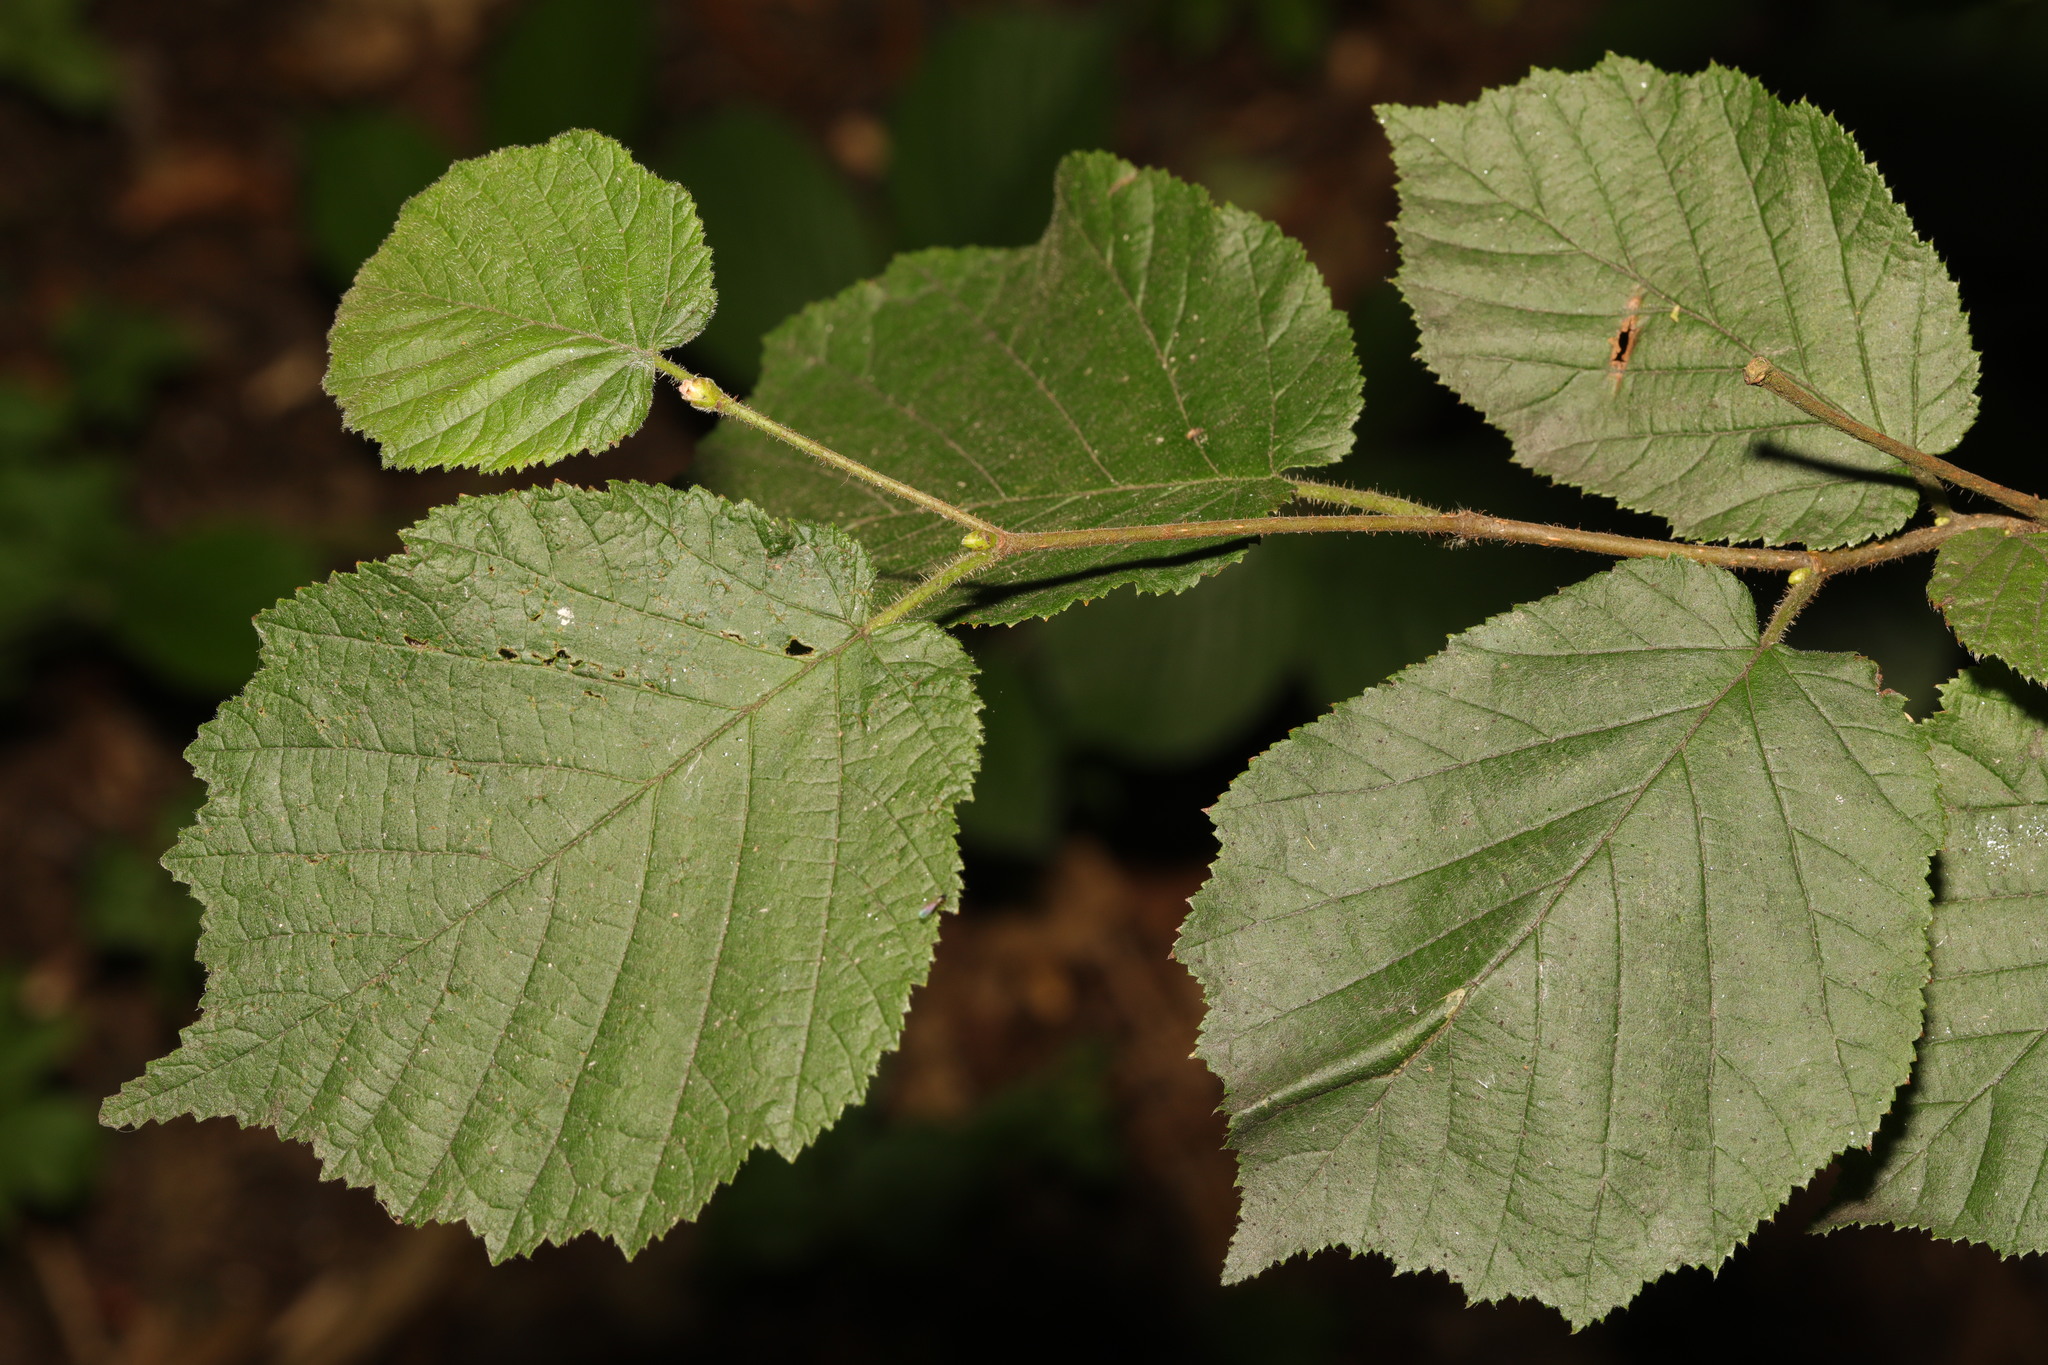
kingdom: Plantae
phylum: Tracheophyta
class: Magnoliopsida
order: Fagales
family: Betulaceae
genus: Corylus
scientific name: Corylus avellana
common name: European hazel
